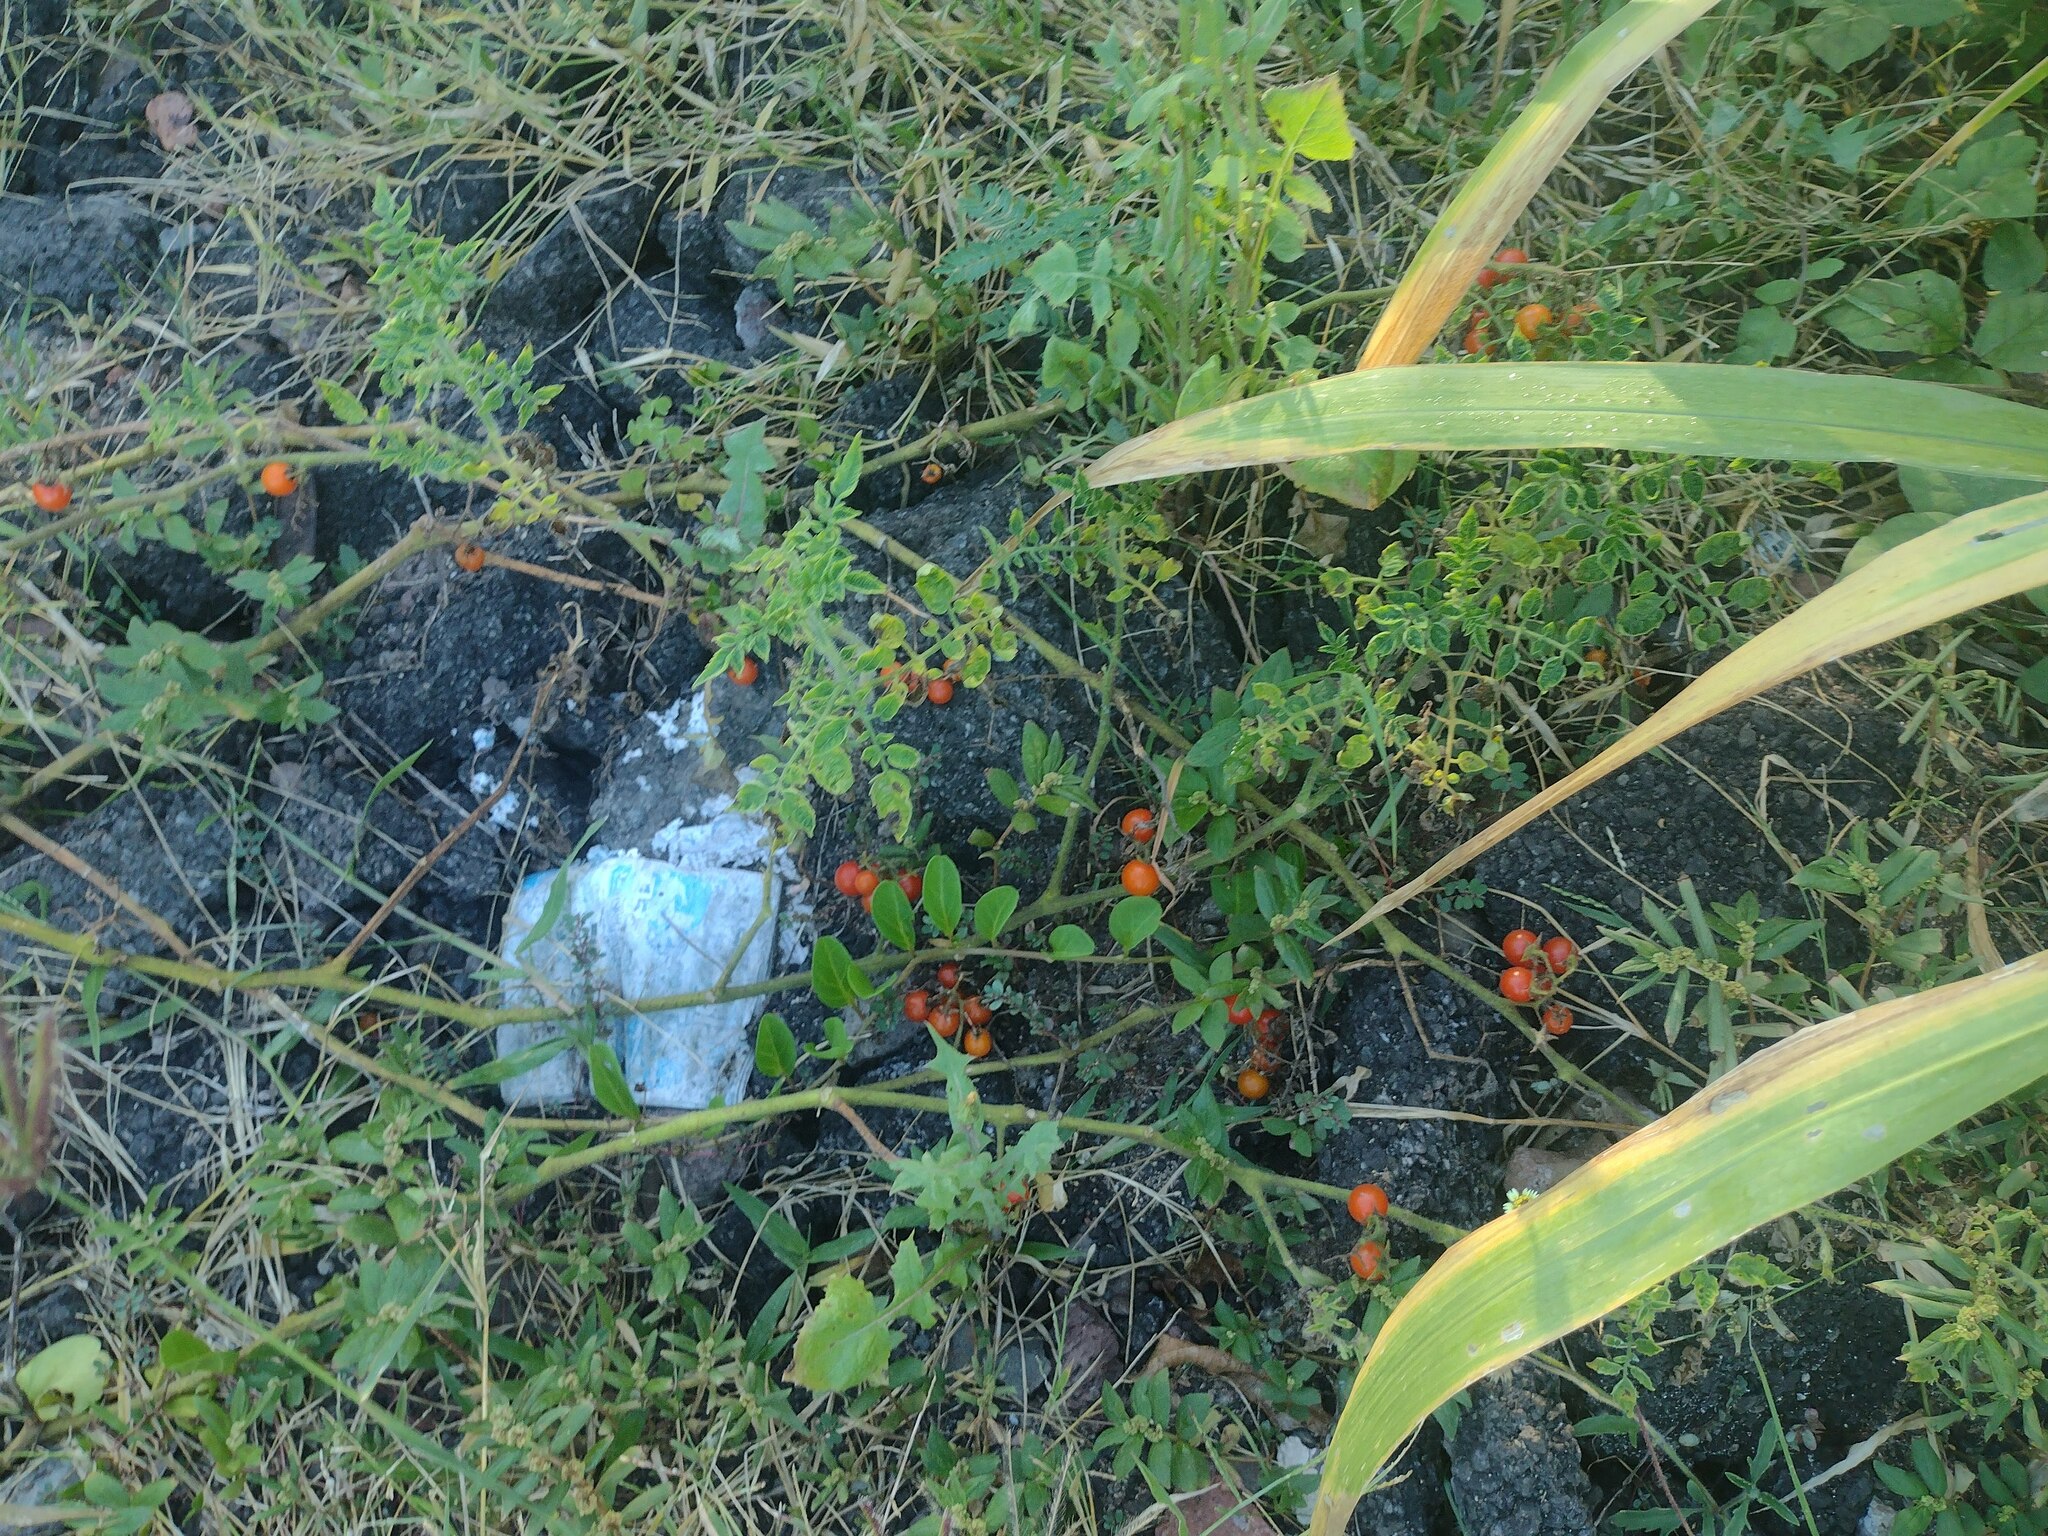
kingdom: Plantae
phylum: Tracheophyta
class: Magnoliopsida
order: Solanales
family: Solanaceae
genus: Solanum
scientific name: Solanum lycopersicum
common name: Garden tomato
